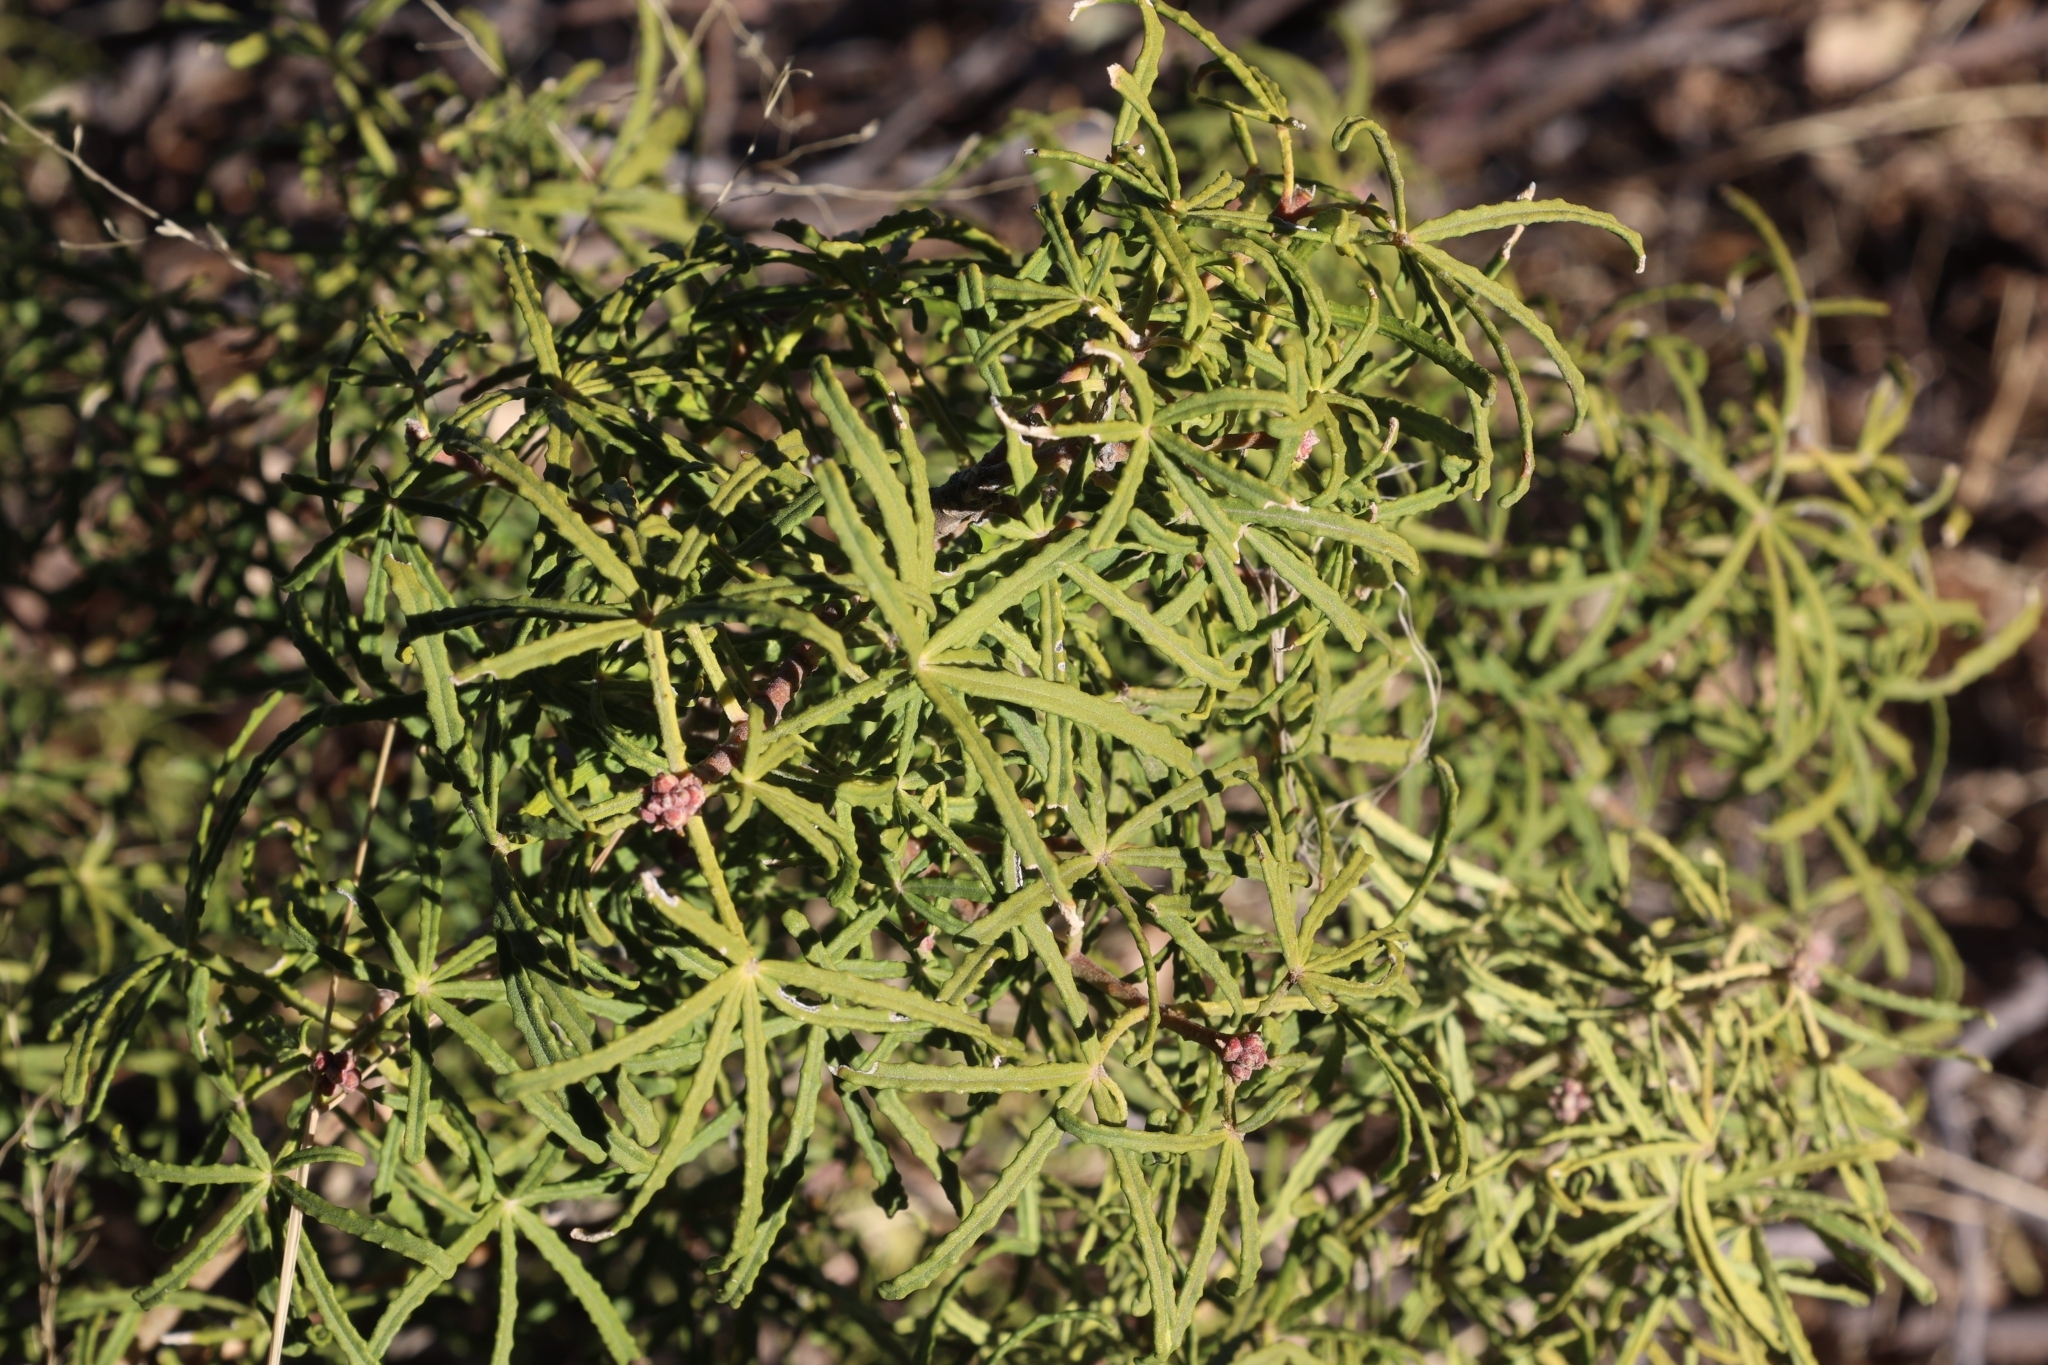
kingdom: Plantae
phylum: Tracheophyta
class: Magnoliopsida
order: Sapindales
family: Rutaceae
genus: Choisya
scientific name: Choisya dumosa
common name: Mexican-orange
